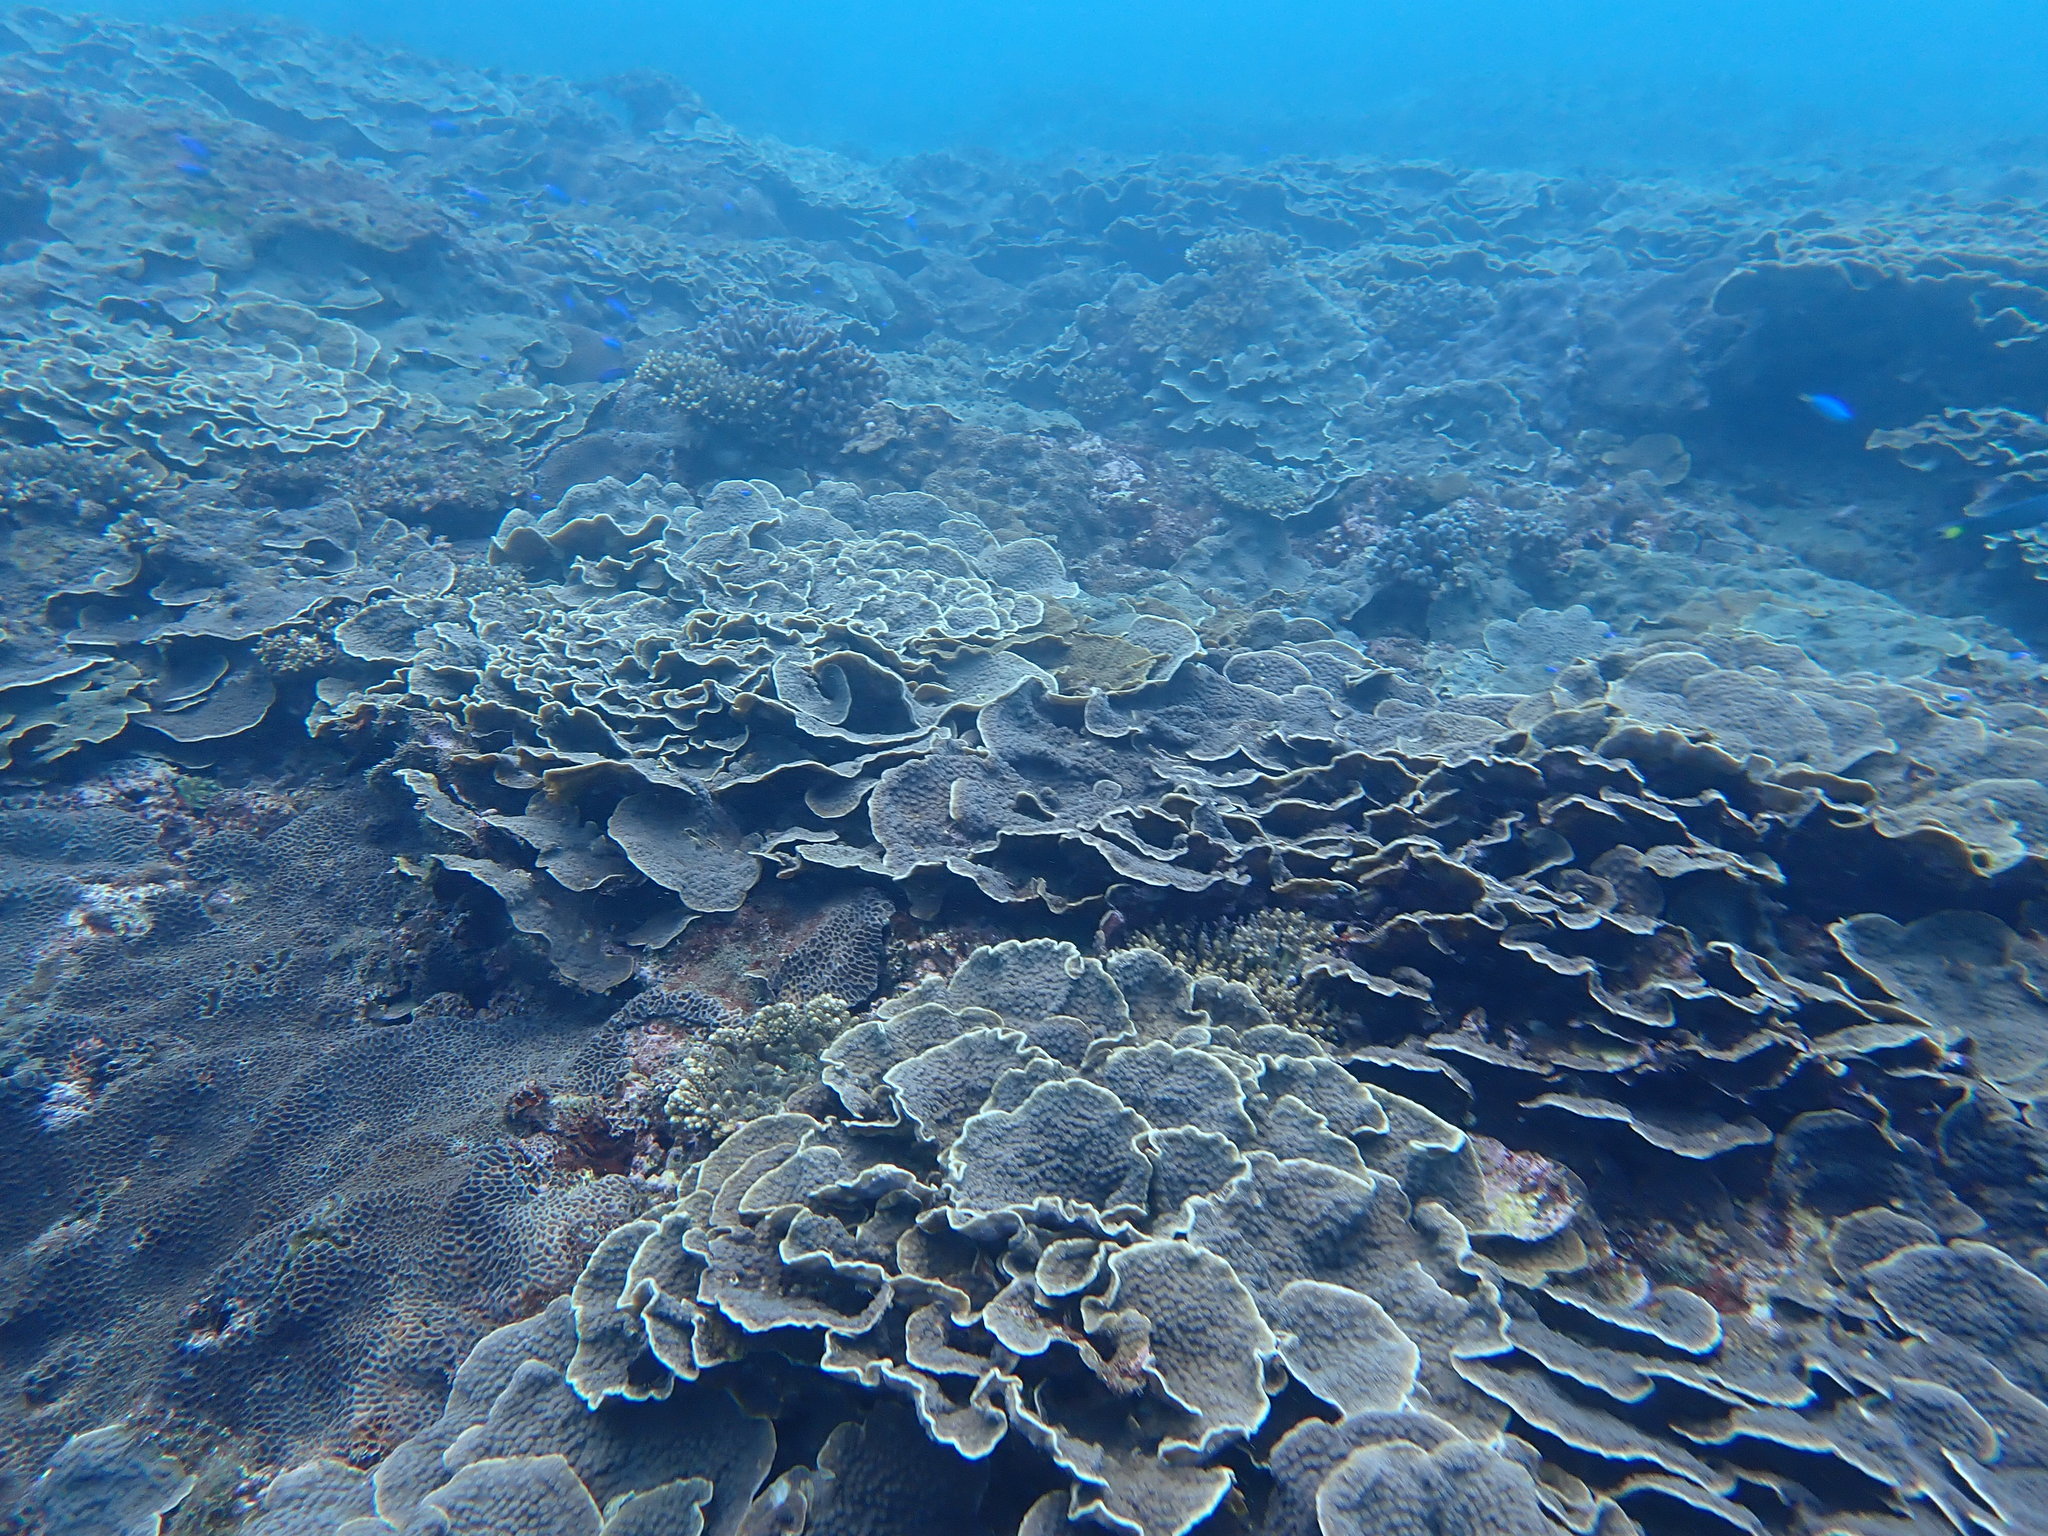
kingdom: Animalia
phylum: Cnidaria
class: Anthozoa
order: Scleractinia
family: Merulinidae
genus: Echinopora
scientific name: Echinopora lamellosa
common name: Hedgehog coral
